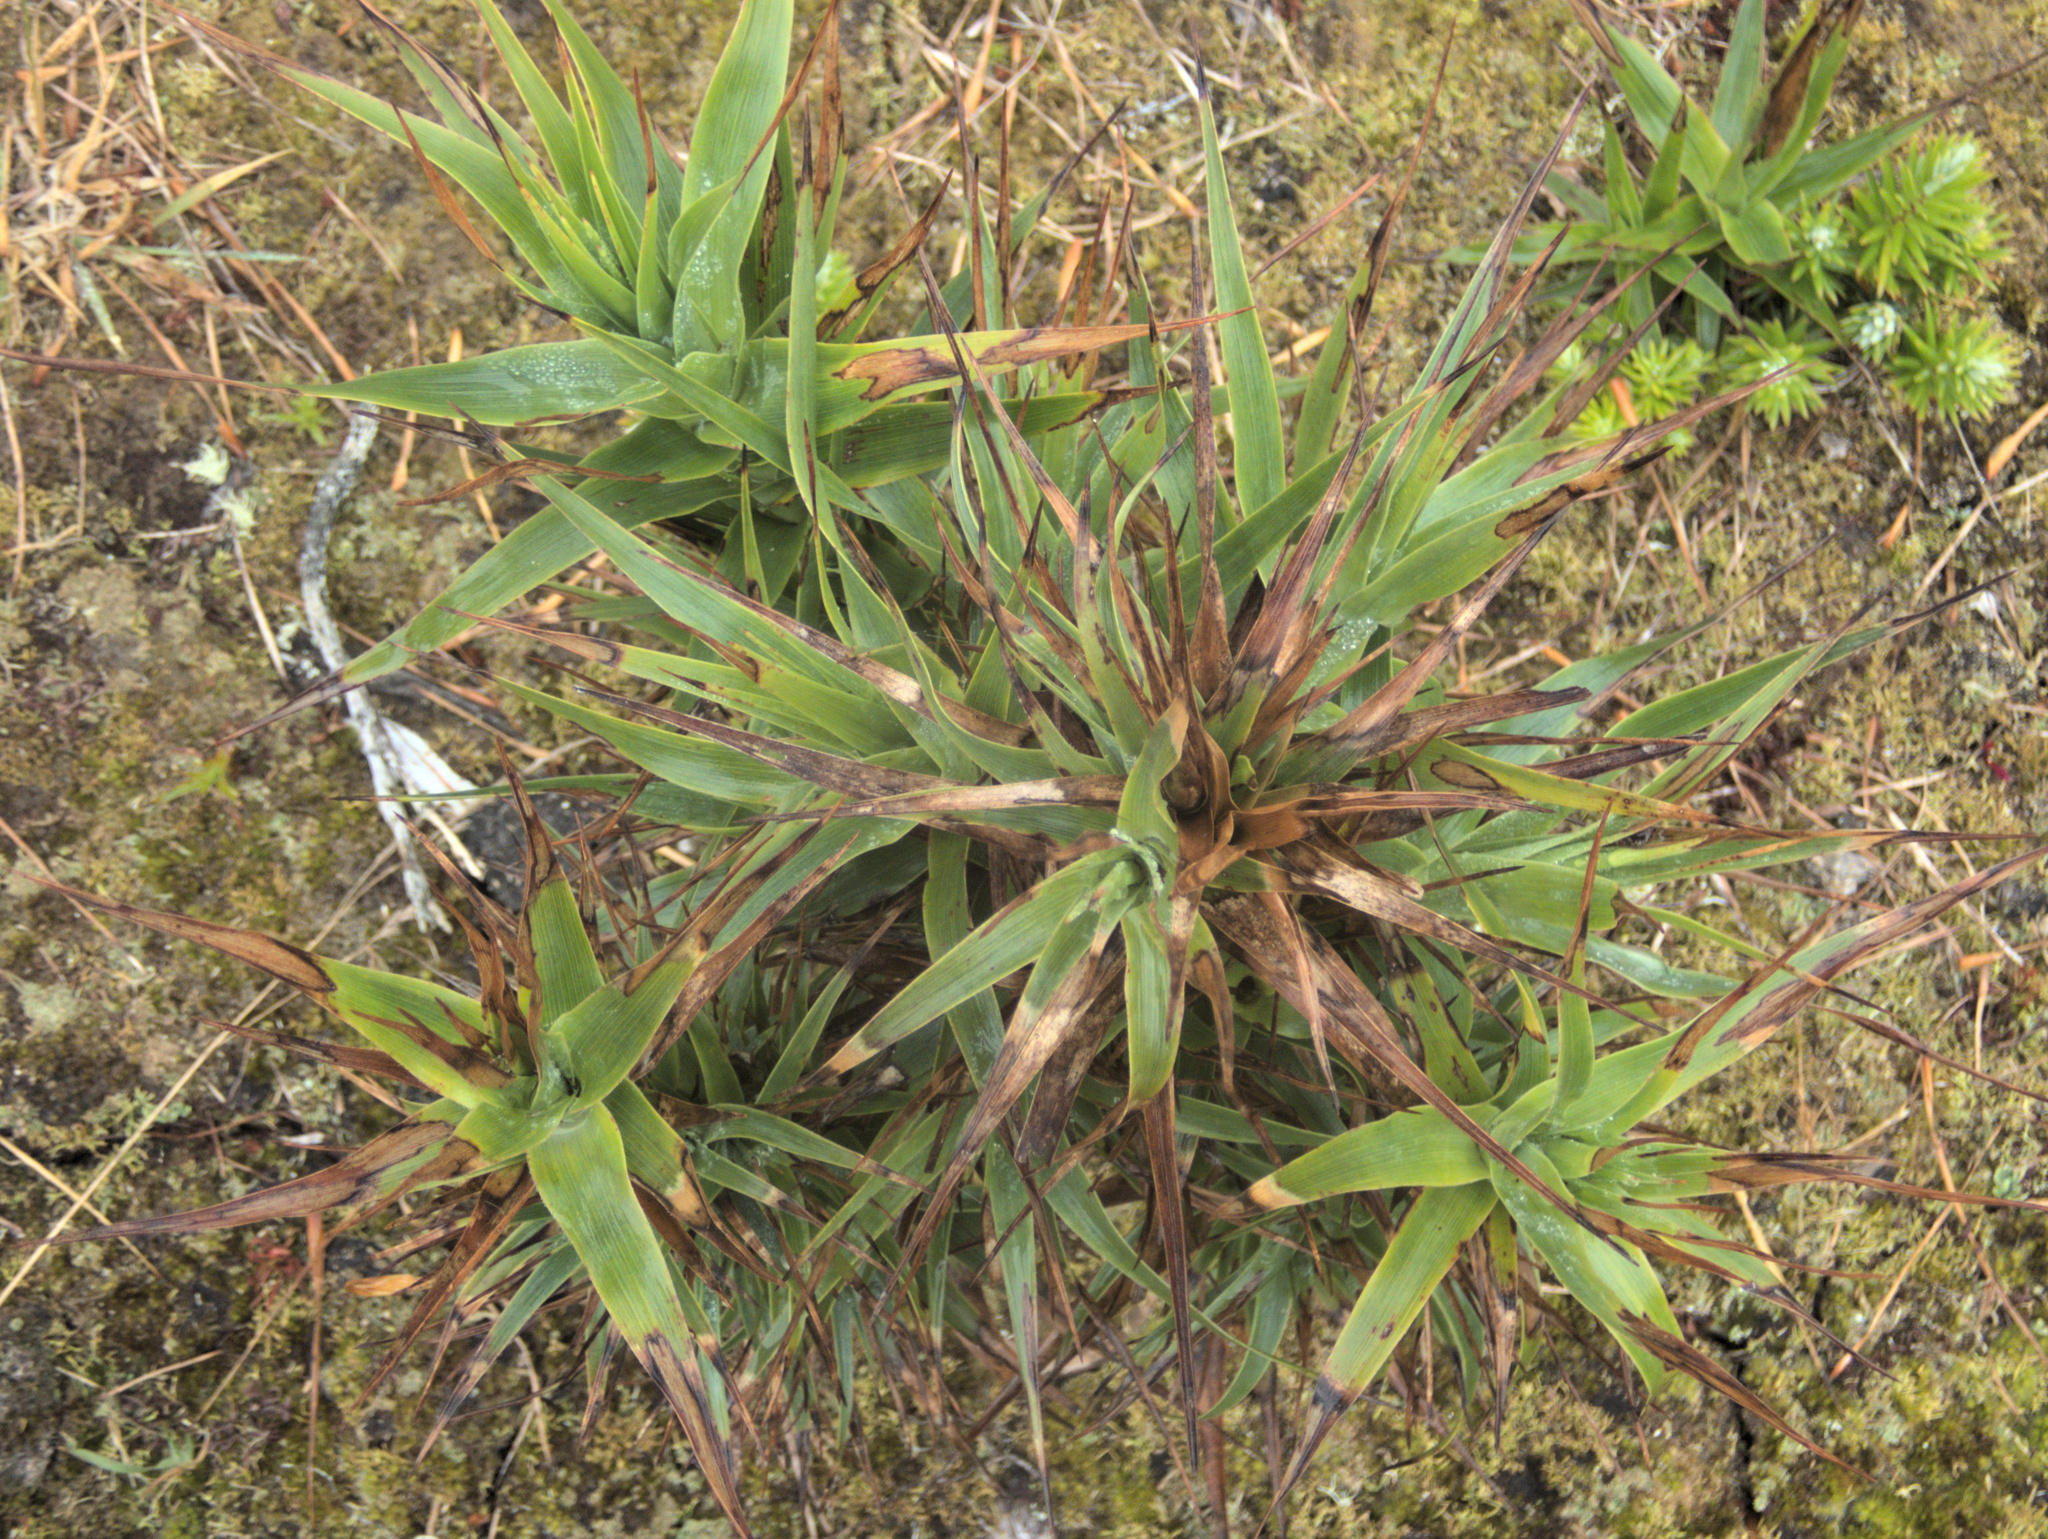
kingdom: Plantae
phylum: Tracheophyta
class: Magnoliopsida
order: Ericales
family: Ericaceae
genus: Dracophyllum
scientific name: Dracophyllum arboreum
